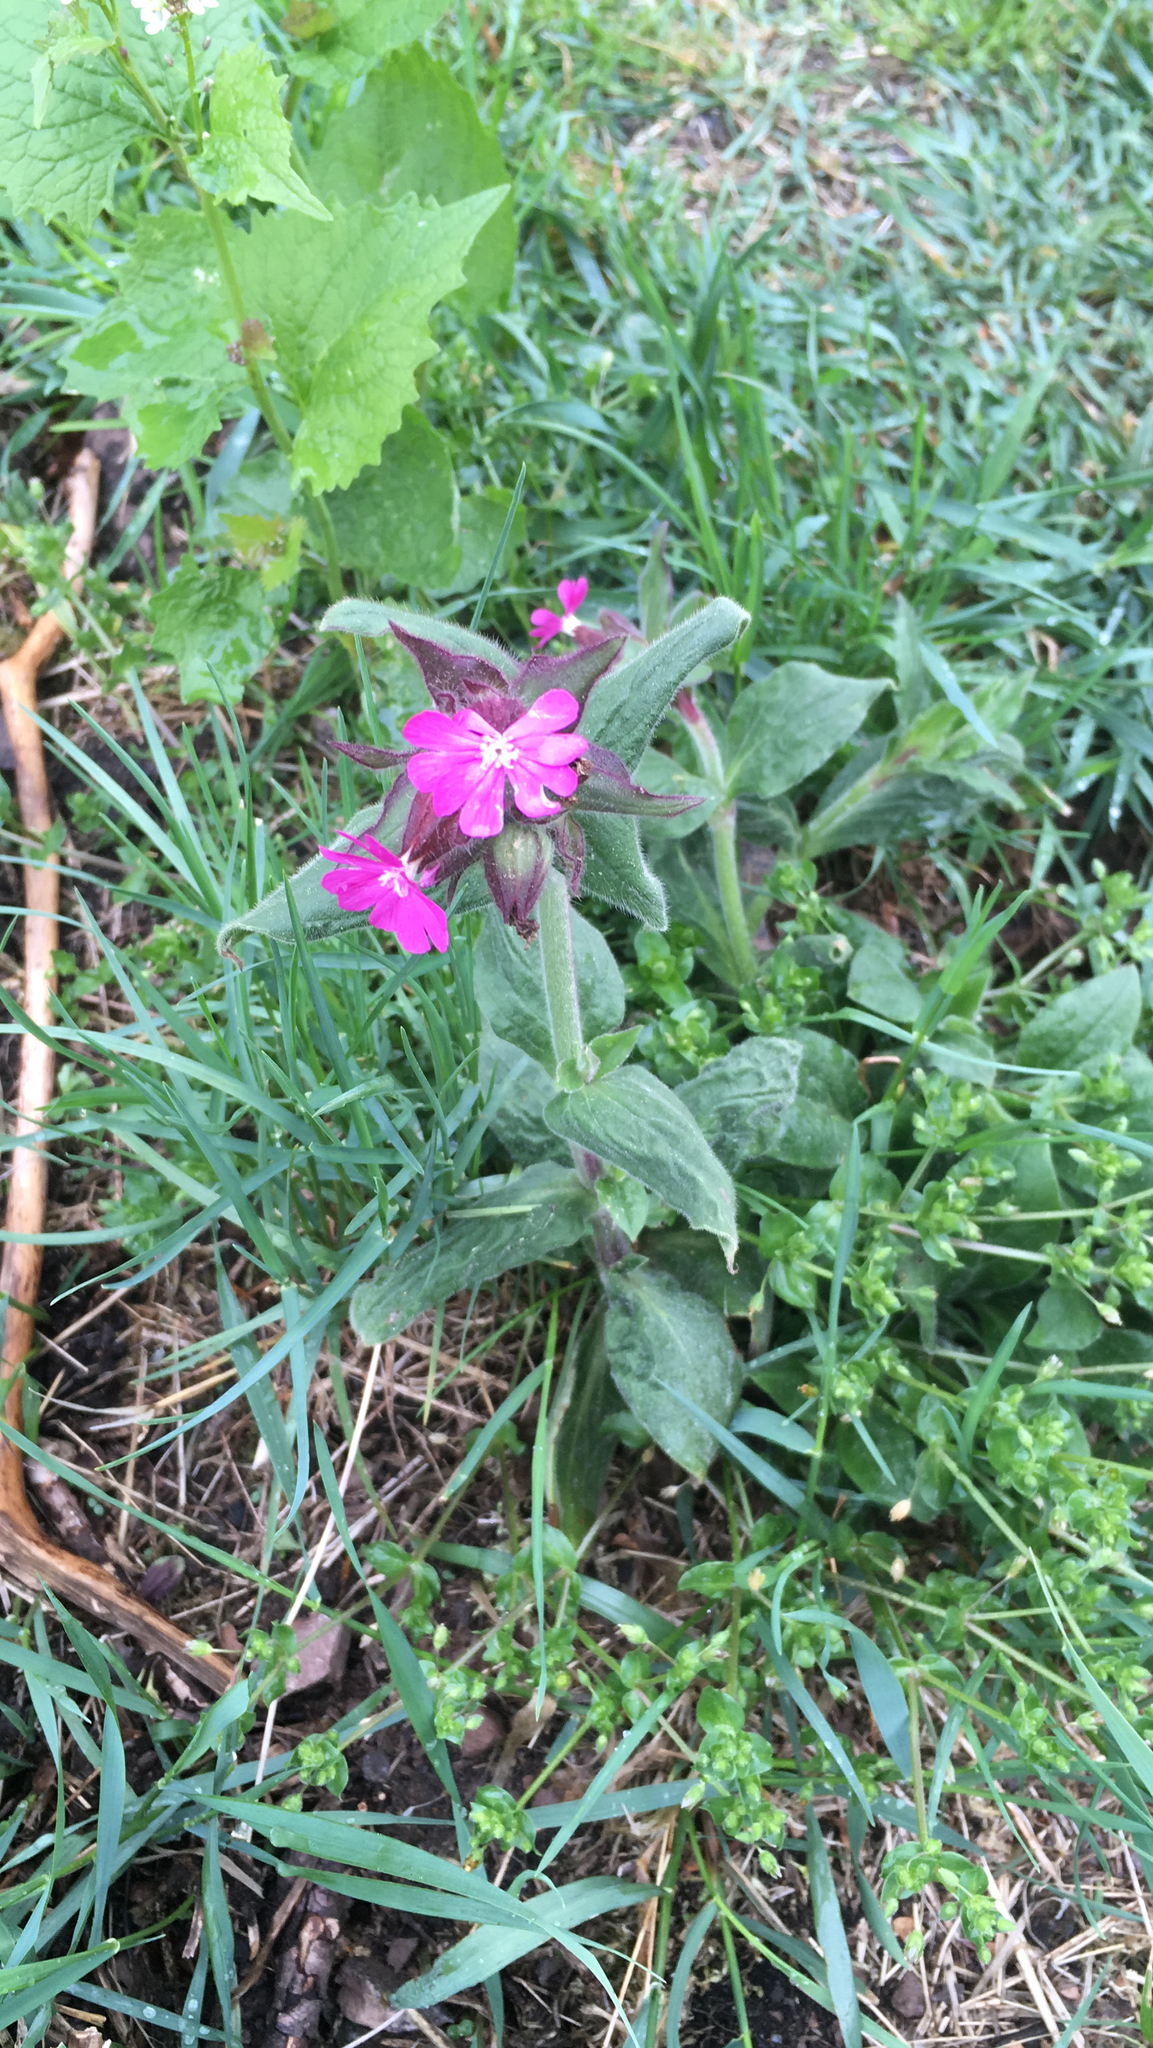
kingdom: Plantae
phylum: Tracheophyta
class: Magnoliopsida
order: Caryophyllales
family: Caryophyllaceae
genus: Silene
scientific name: Silene dioica
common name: Red campion
